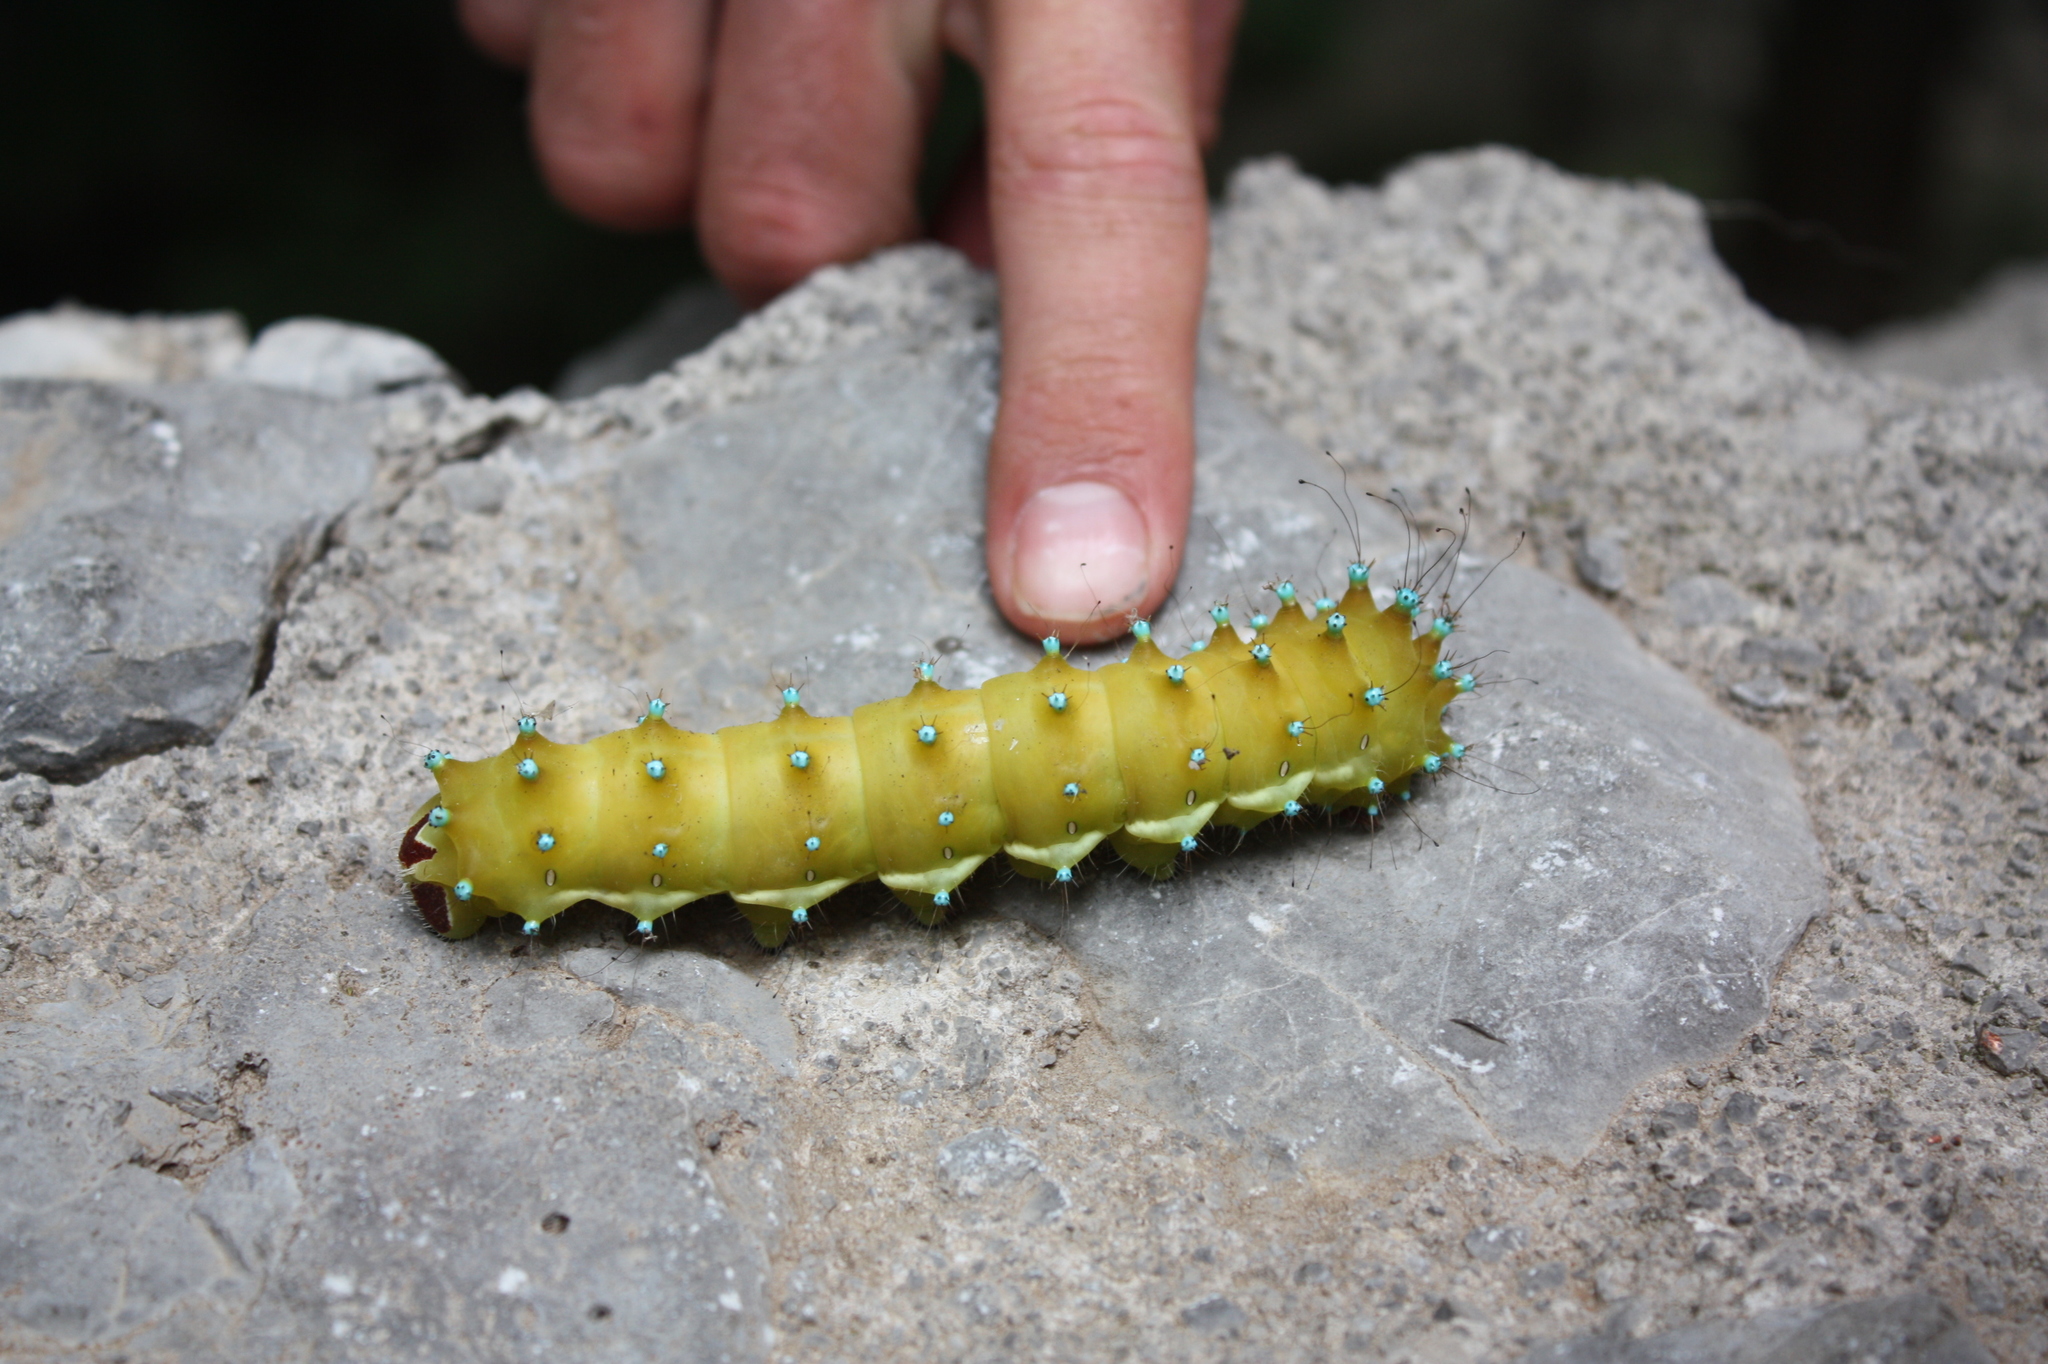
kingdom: Animalia
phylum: Arthropoda
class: Insecta
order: Lepidoptera
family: Saturniidae
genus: Saturnia
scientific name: Saturnia pyri
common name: Great peacock moth
